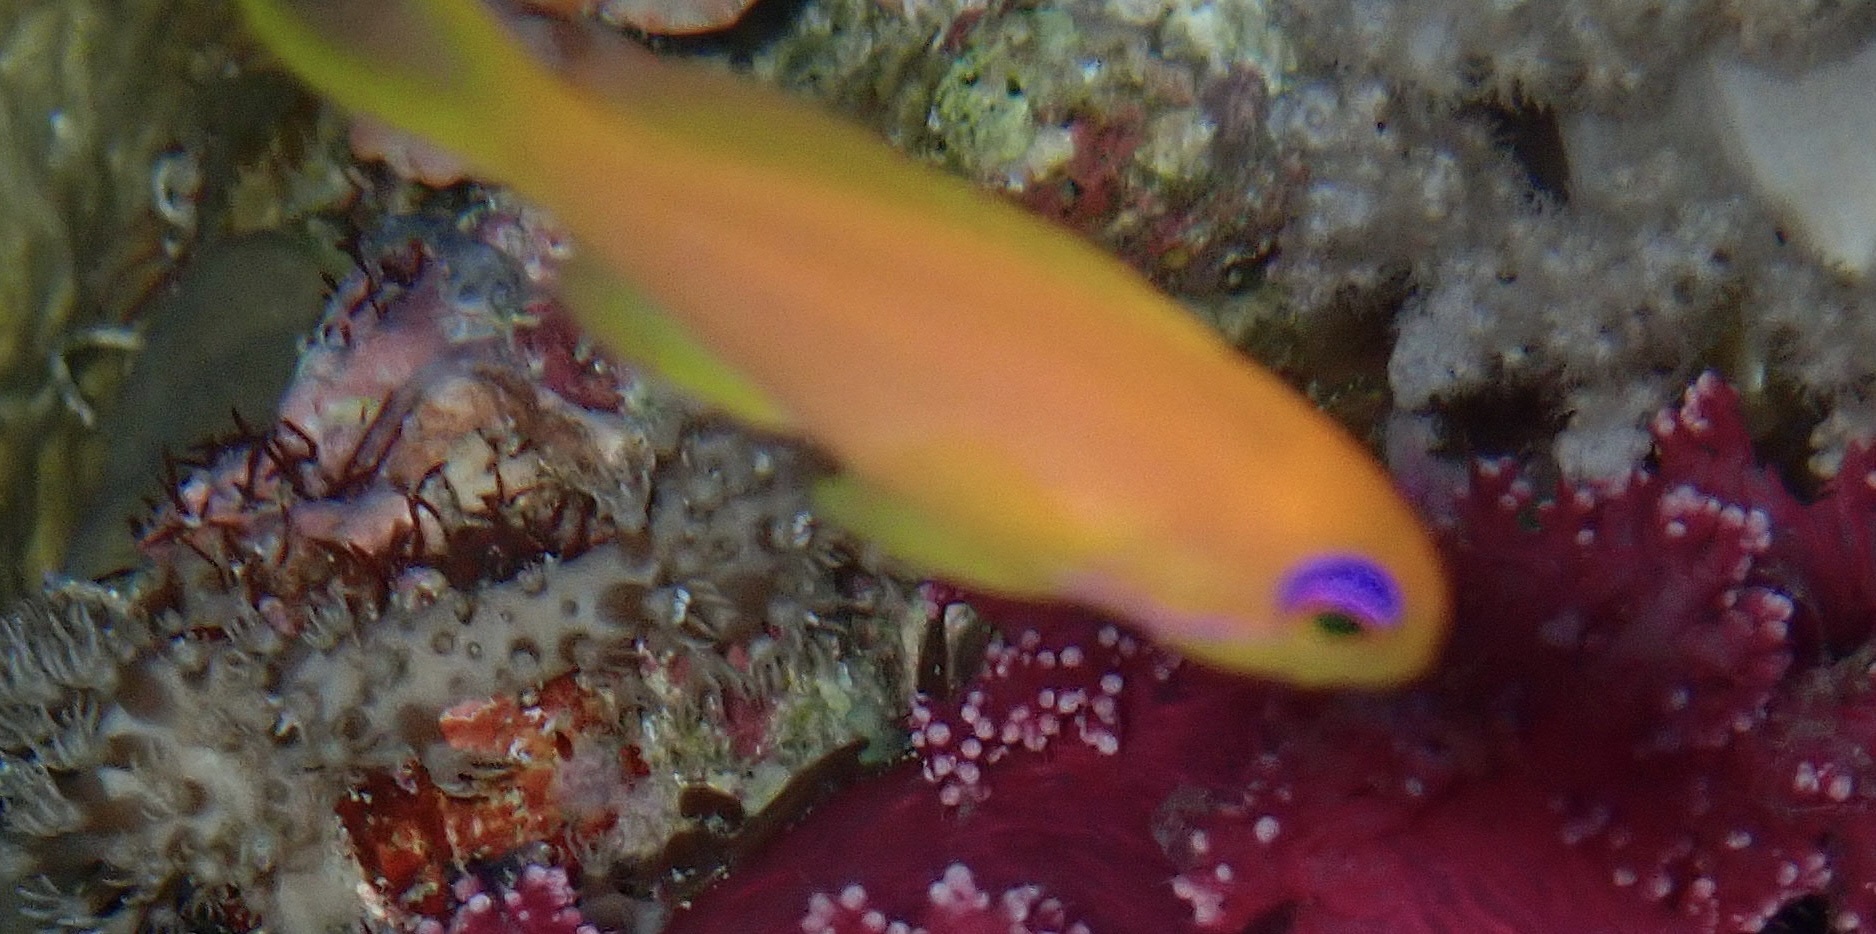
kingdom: Animalia
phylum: Chordata
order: Perciformes
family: Serranidae
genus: Pseudanthias
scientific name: Pseudanthias squamipinnis
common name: Scalefin anthias
